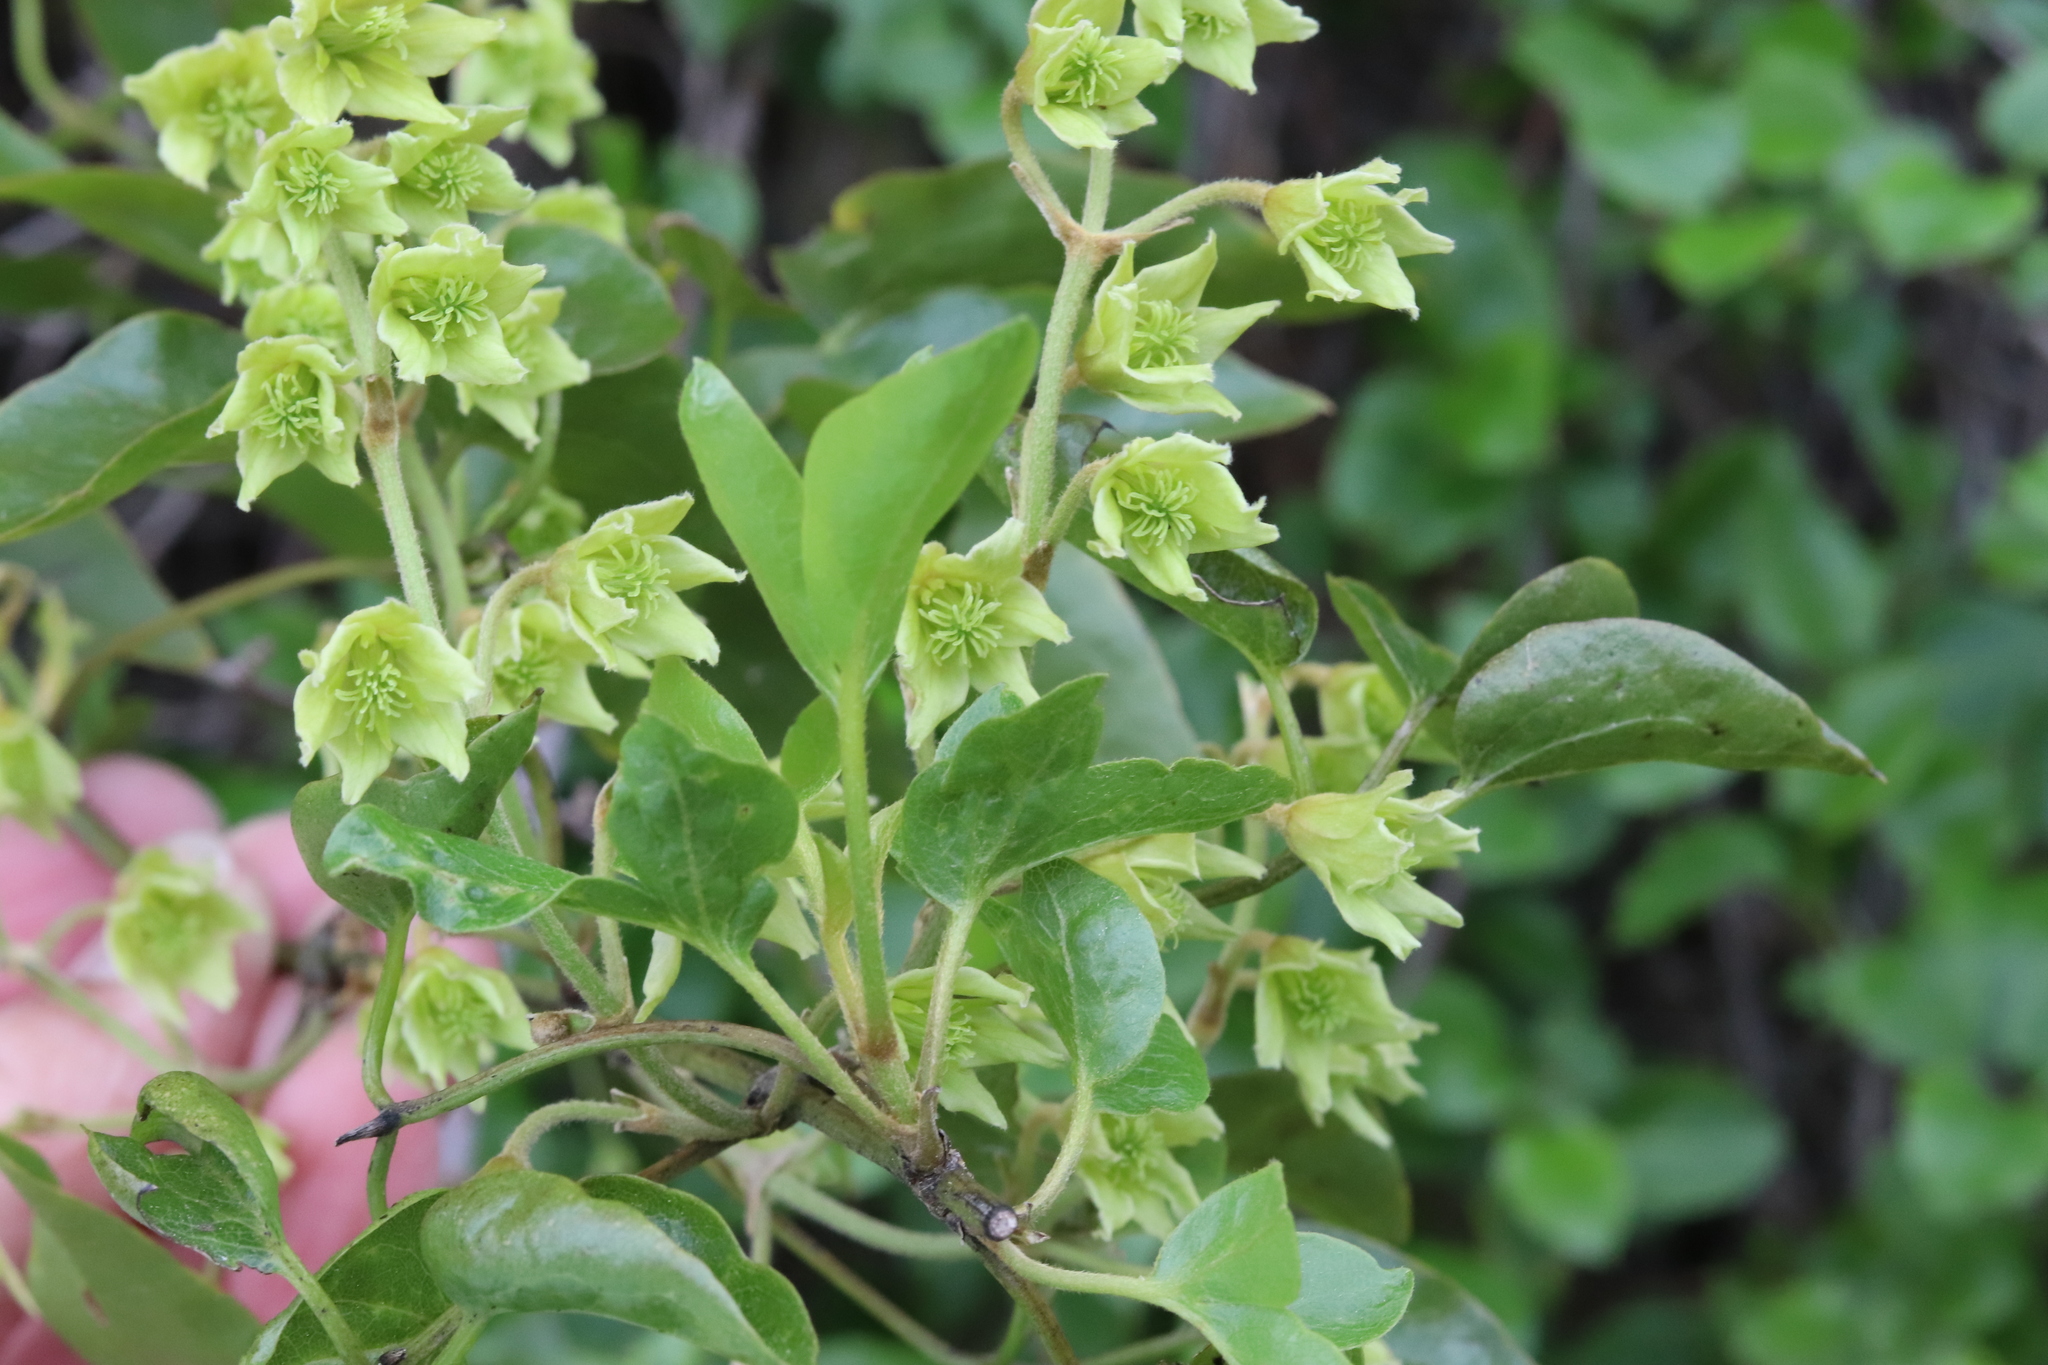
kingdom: Plantae
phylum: Tracheophyta
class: Magnoliopsida
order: Ranunculales
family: Ranunculaceae
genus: Clematis
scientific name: Clematis foetida
